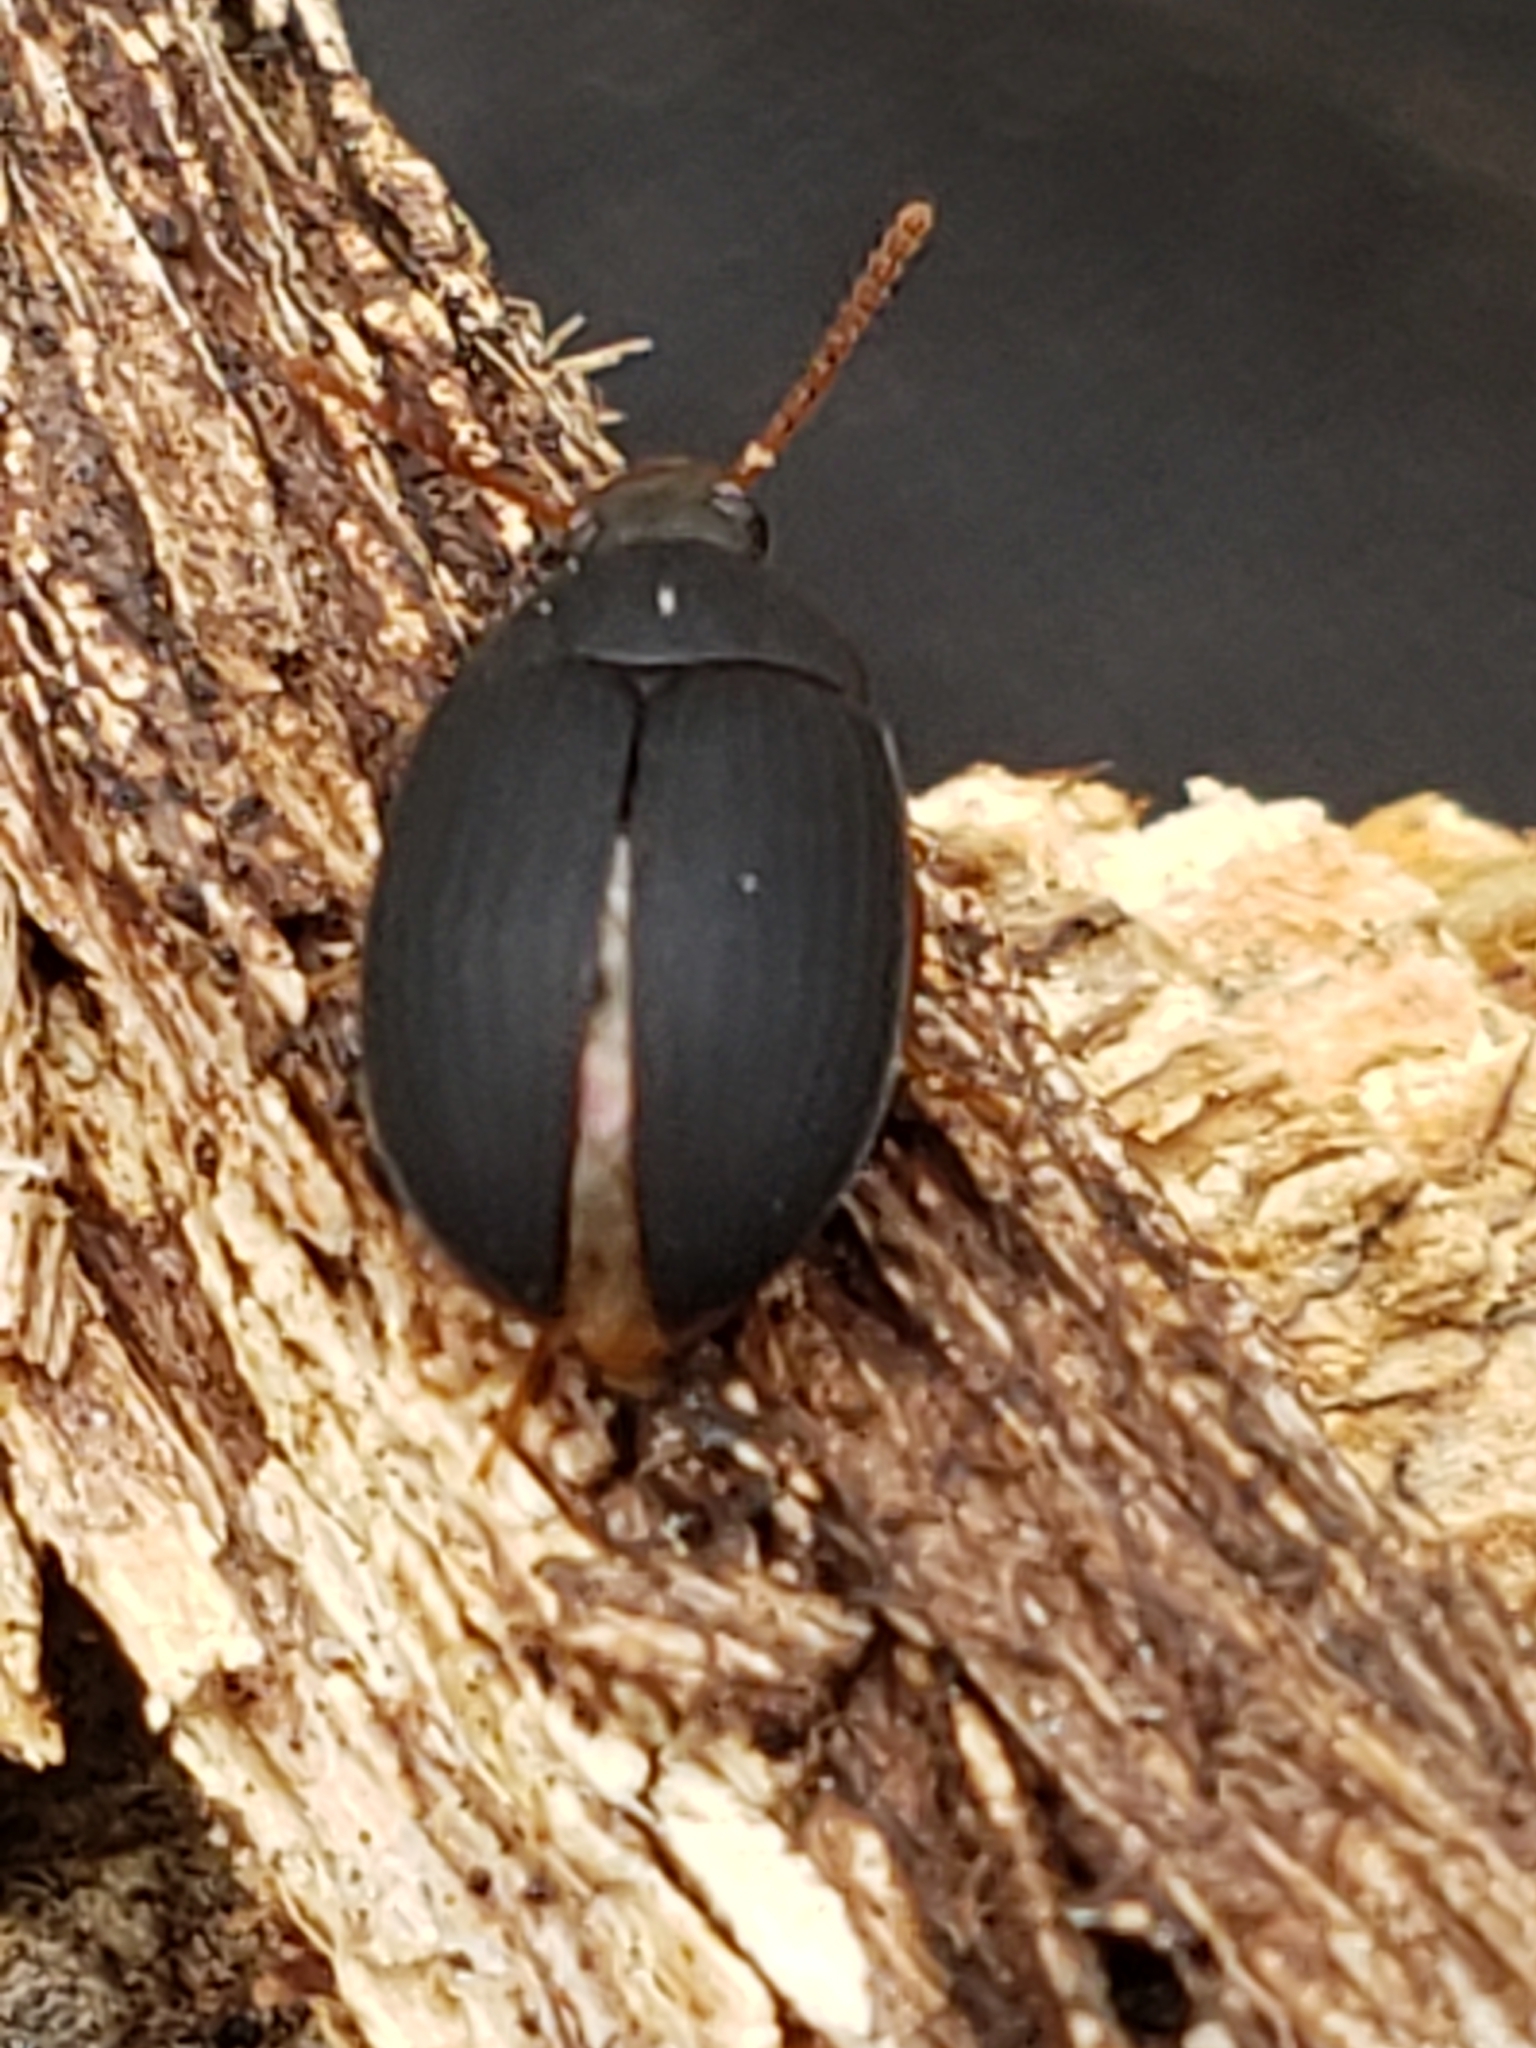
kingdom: Animalia
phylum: Arthropoda
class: Insecta
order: Coleoptera
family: Tenebrionidae
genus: Platydema
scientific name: Platydema ruficornis
